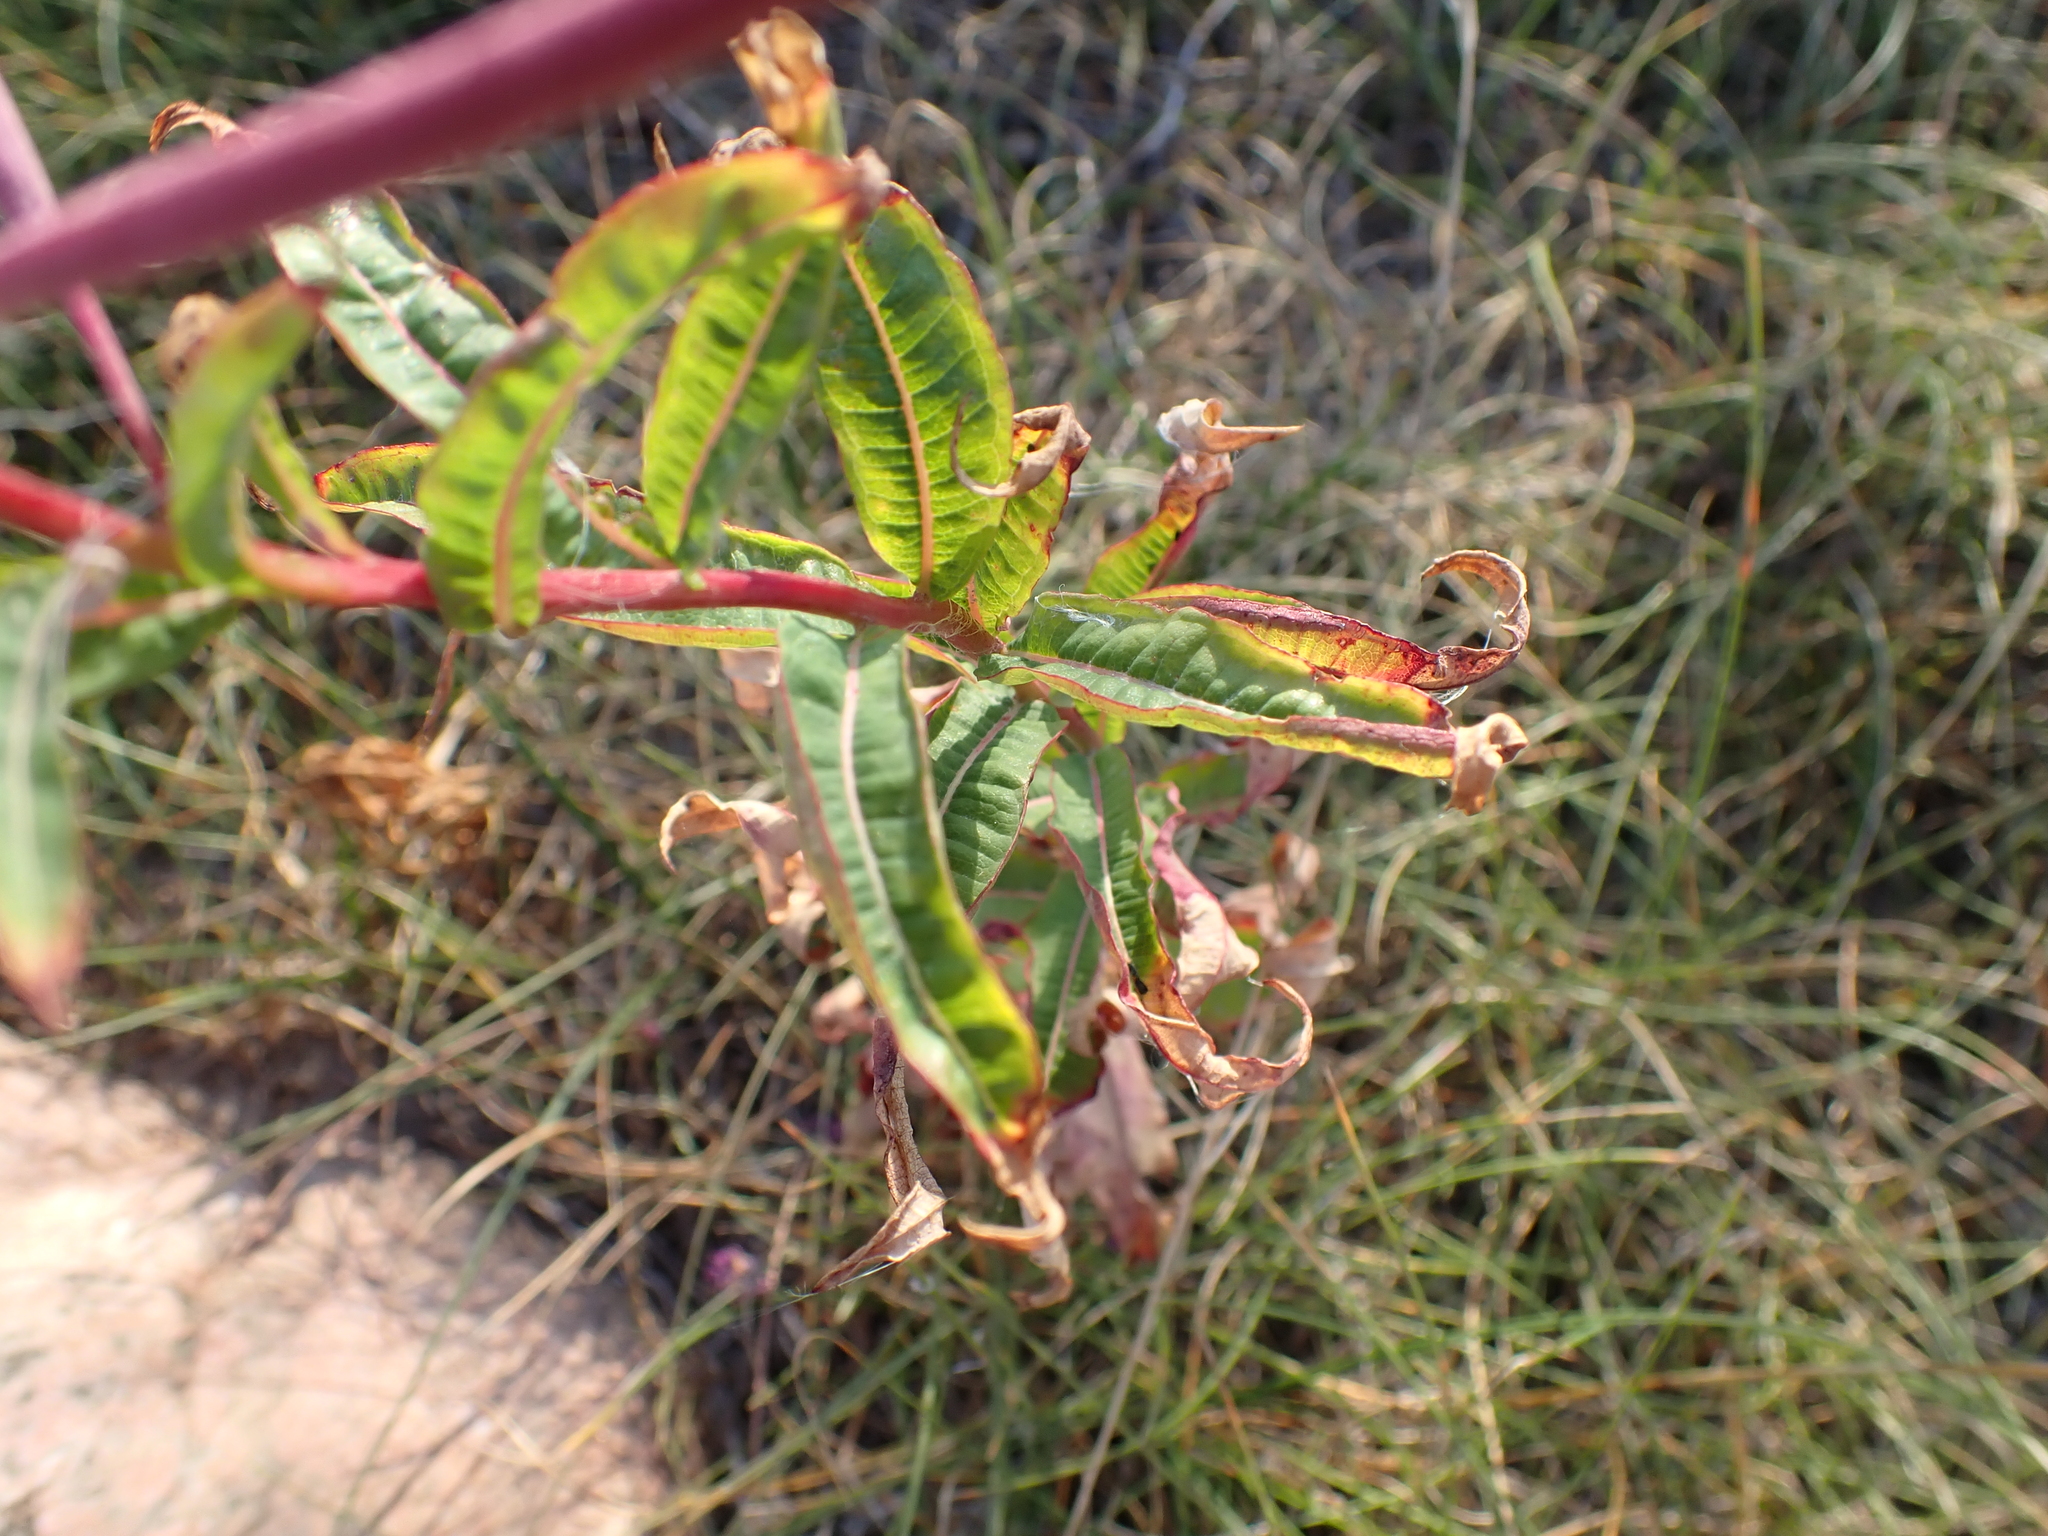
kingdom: Plantae
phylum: Tracheophyta
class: Magnoliopsida
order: Myrtales
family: Onagraceae
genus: Chamaenerion
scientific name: Chamaenerion angustifolium
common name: Fireweed
